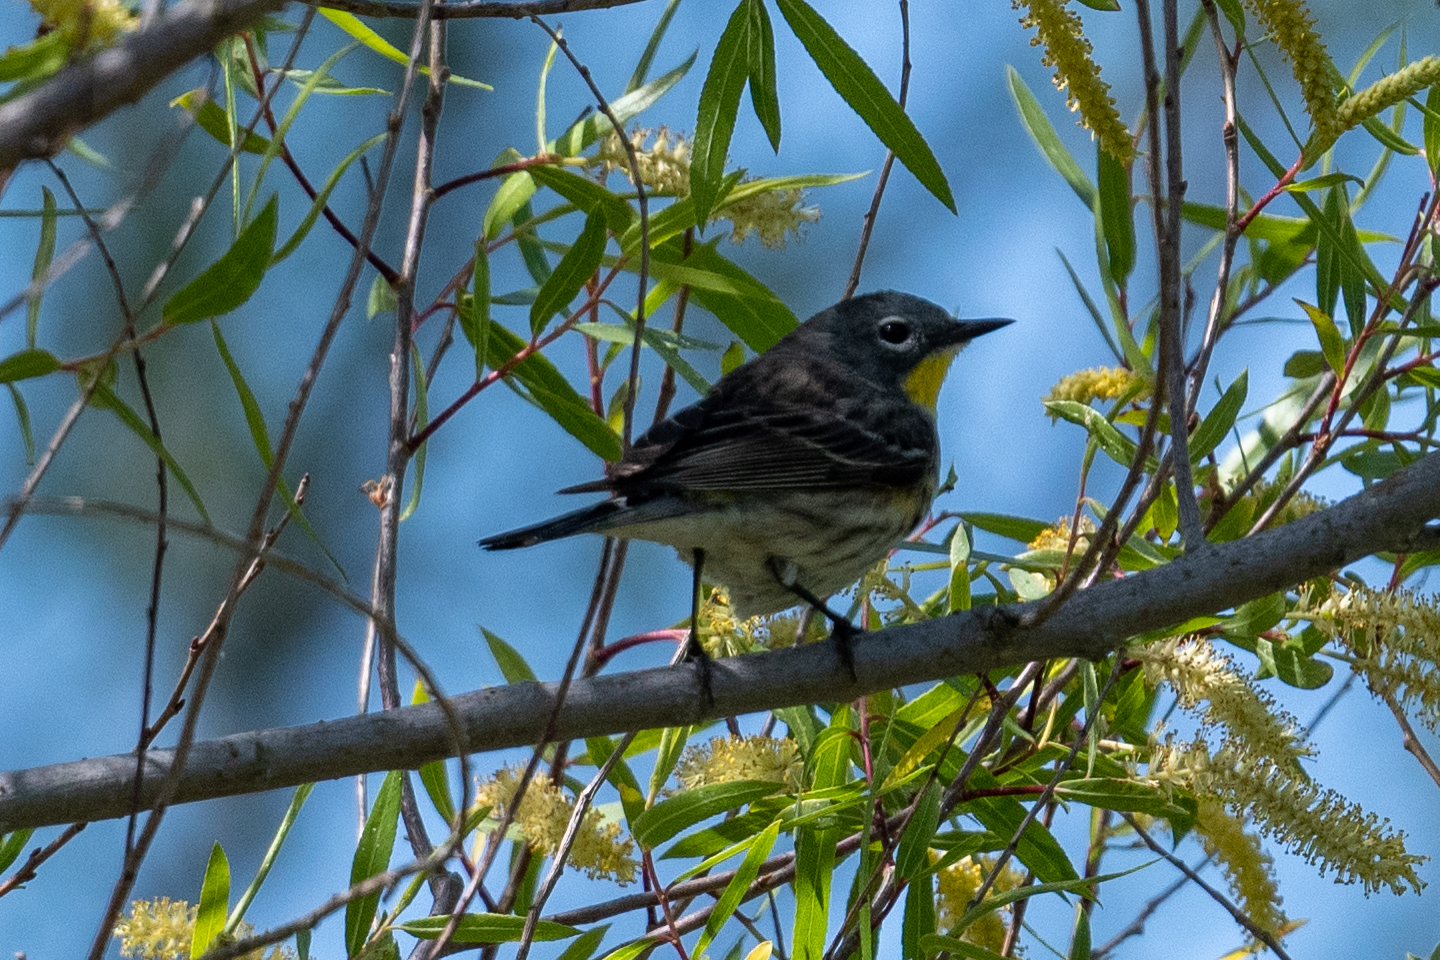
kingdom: Animalia
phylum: Chordata
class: Aves
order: Passeriformes
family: Parulidae
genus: Setophaga
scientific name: Setophaga coronata
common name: Myrtle warbler
